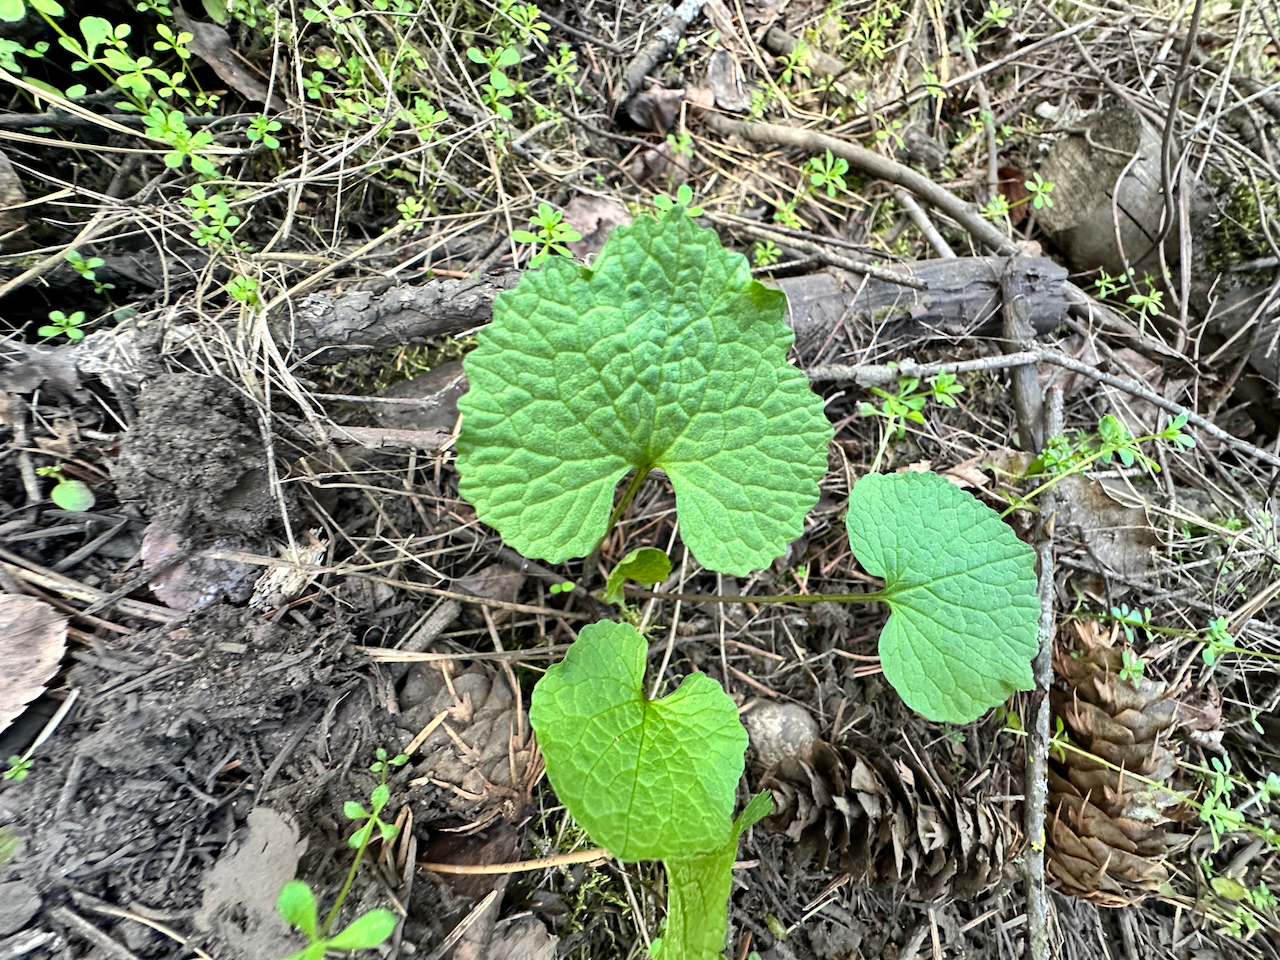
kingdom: Plantae
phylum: Tracheophyta
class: Magnoliopsida
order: Brassicales
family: Brassicaceae
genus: Alliaria
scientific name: Alliaria petiolata
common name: Garlic mustard
